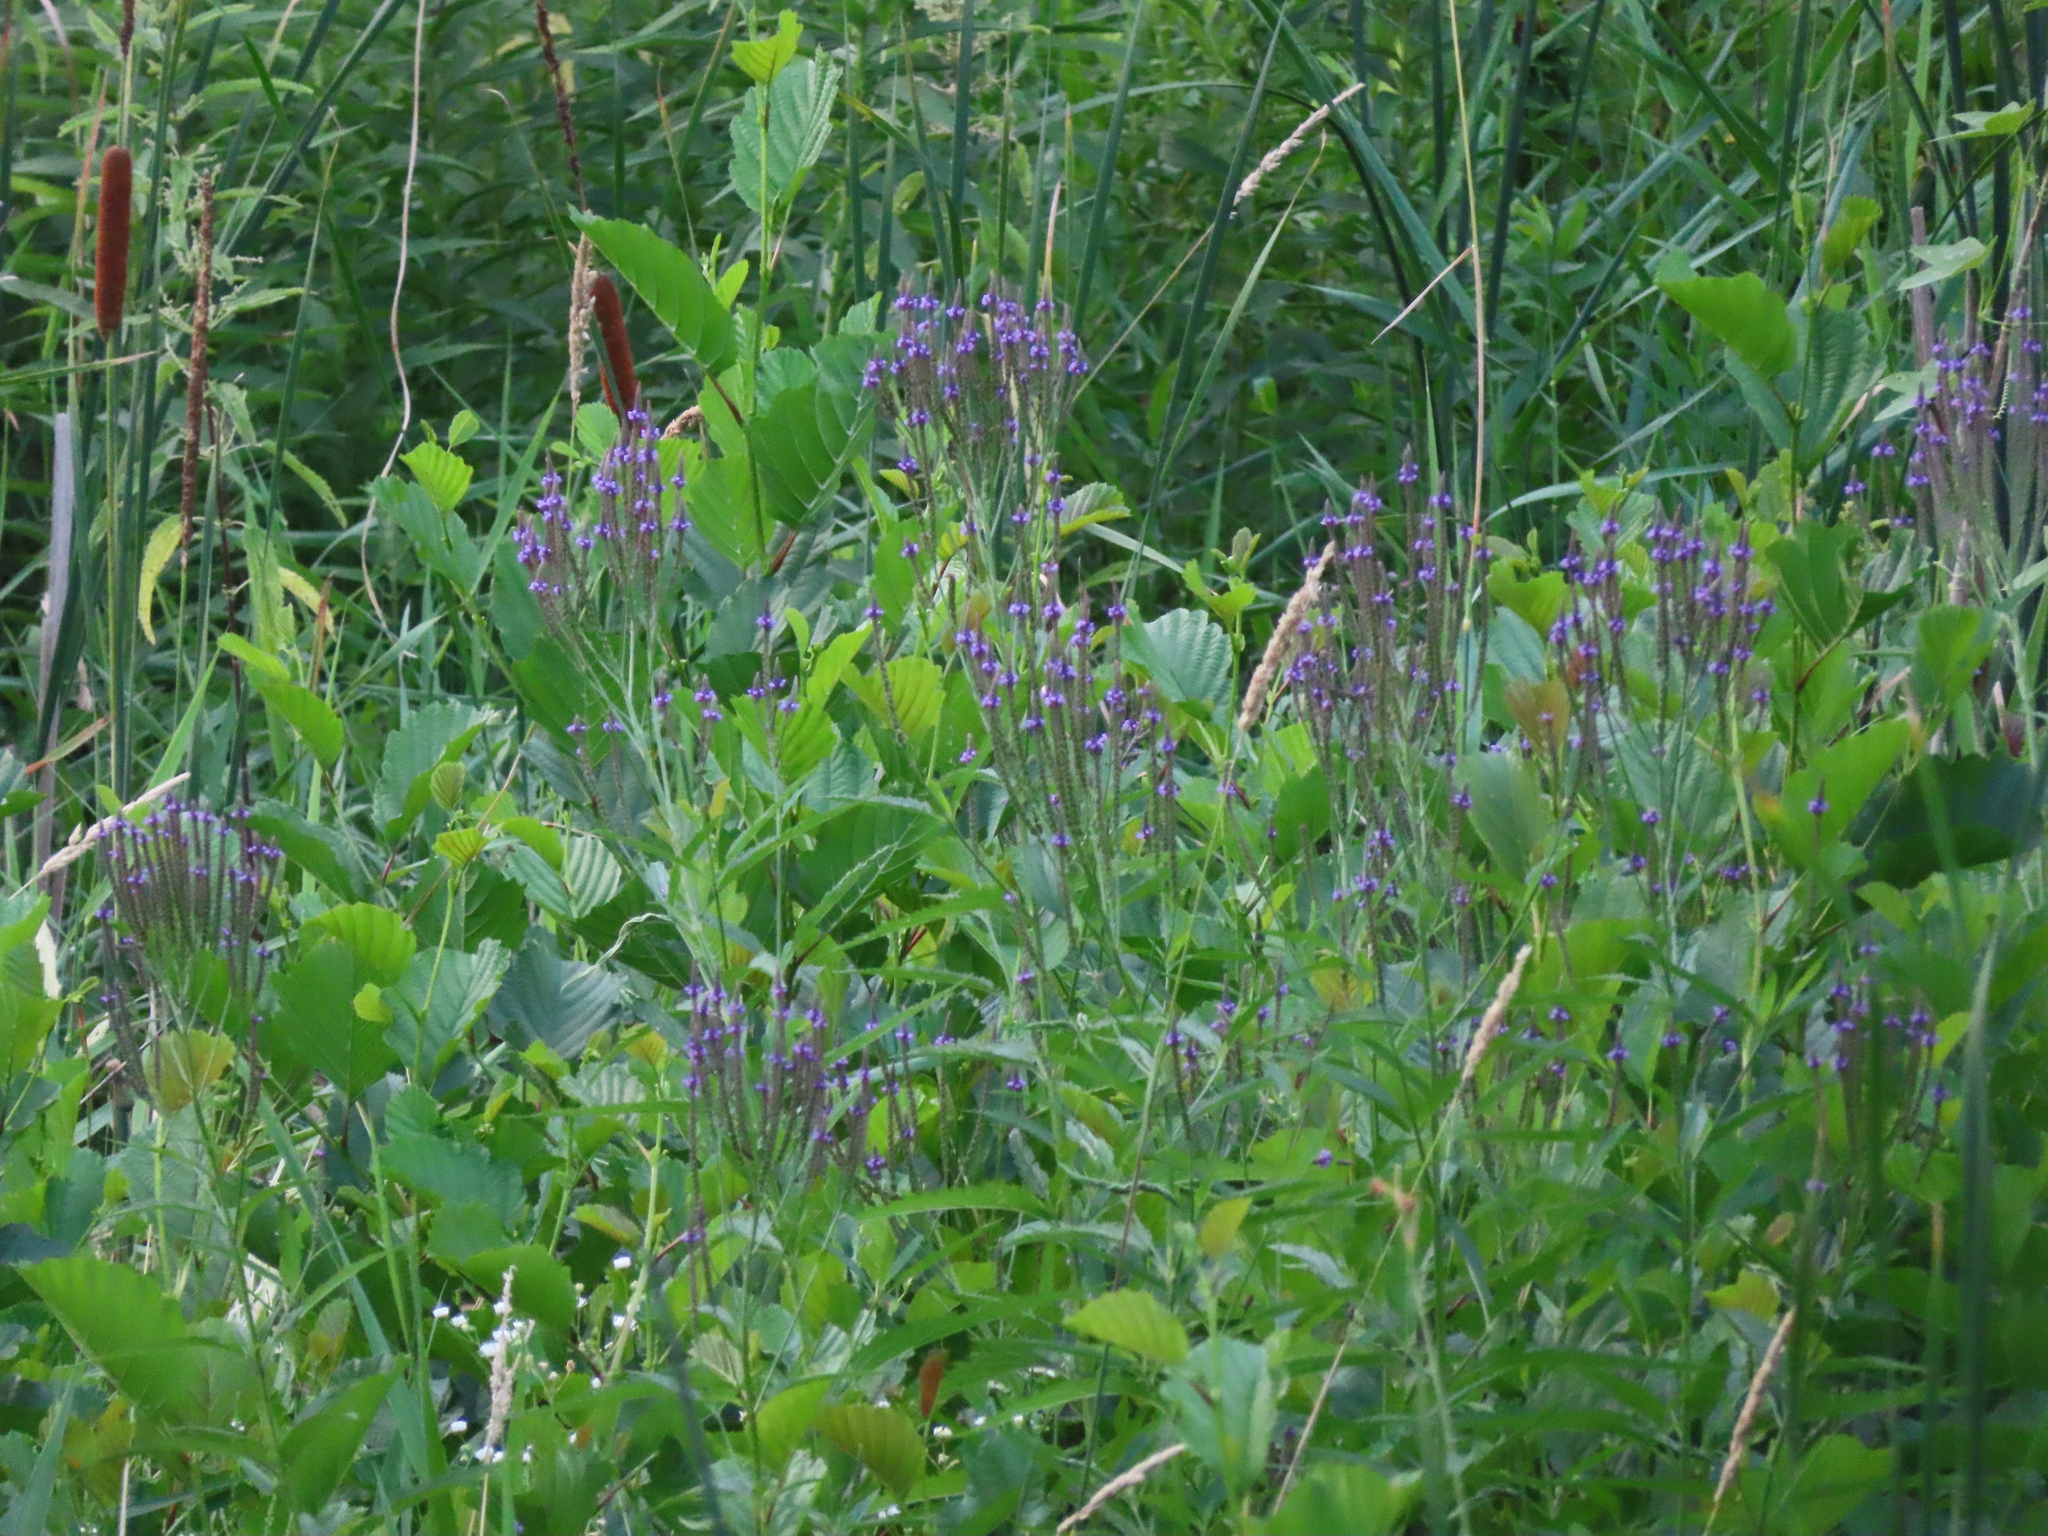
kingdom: Plantae
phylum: Tracheophyta
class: Magnoliopsida
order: Lamiales
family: Verbenaceae
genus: Verbena
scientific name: Verbena hastata
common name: American blue vervain
